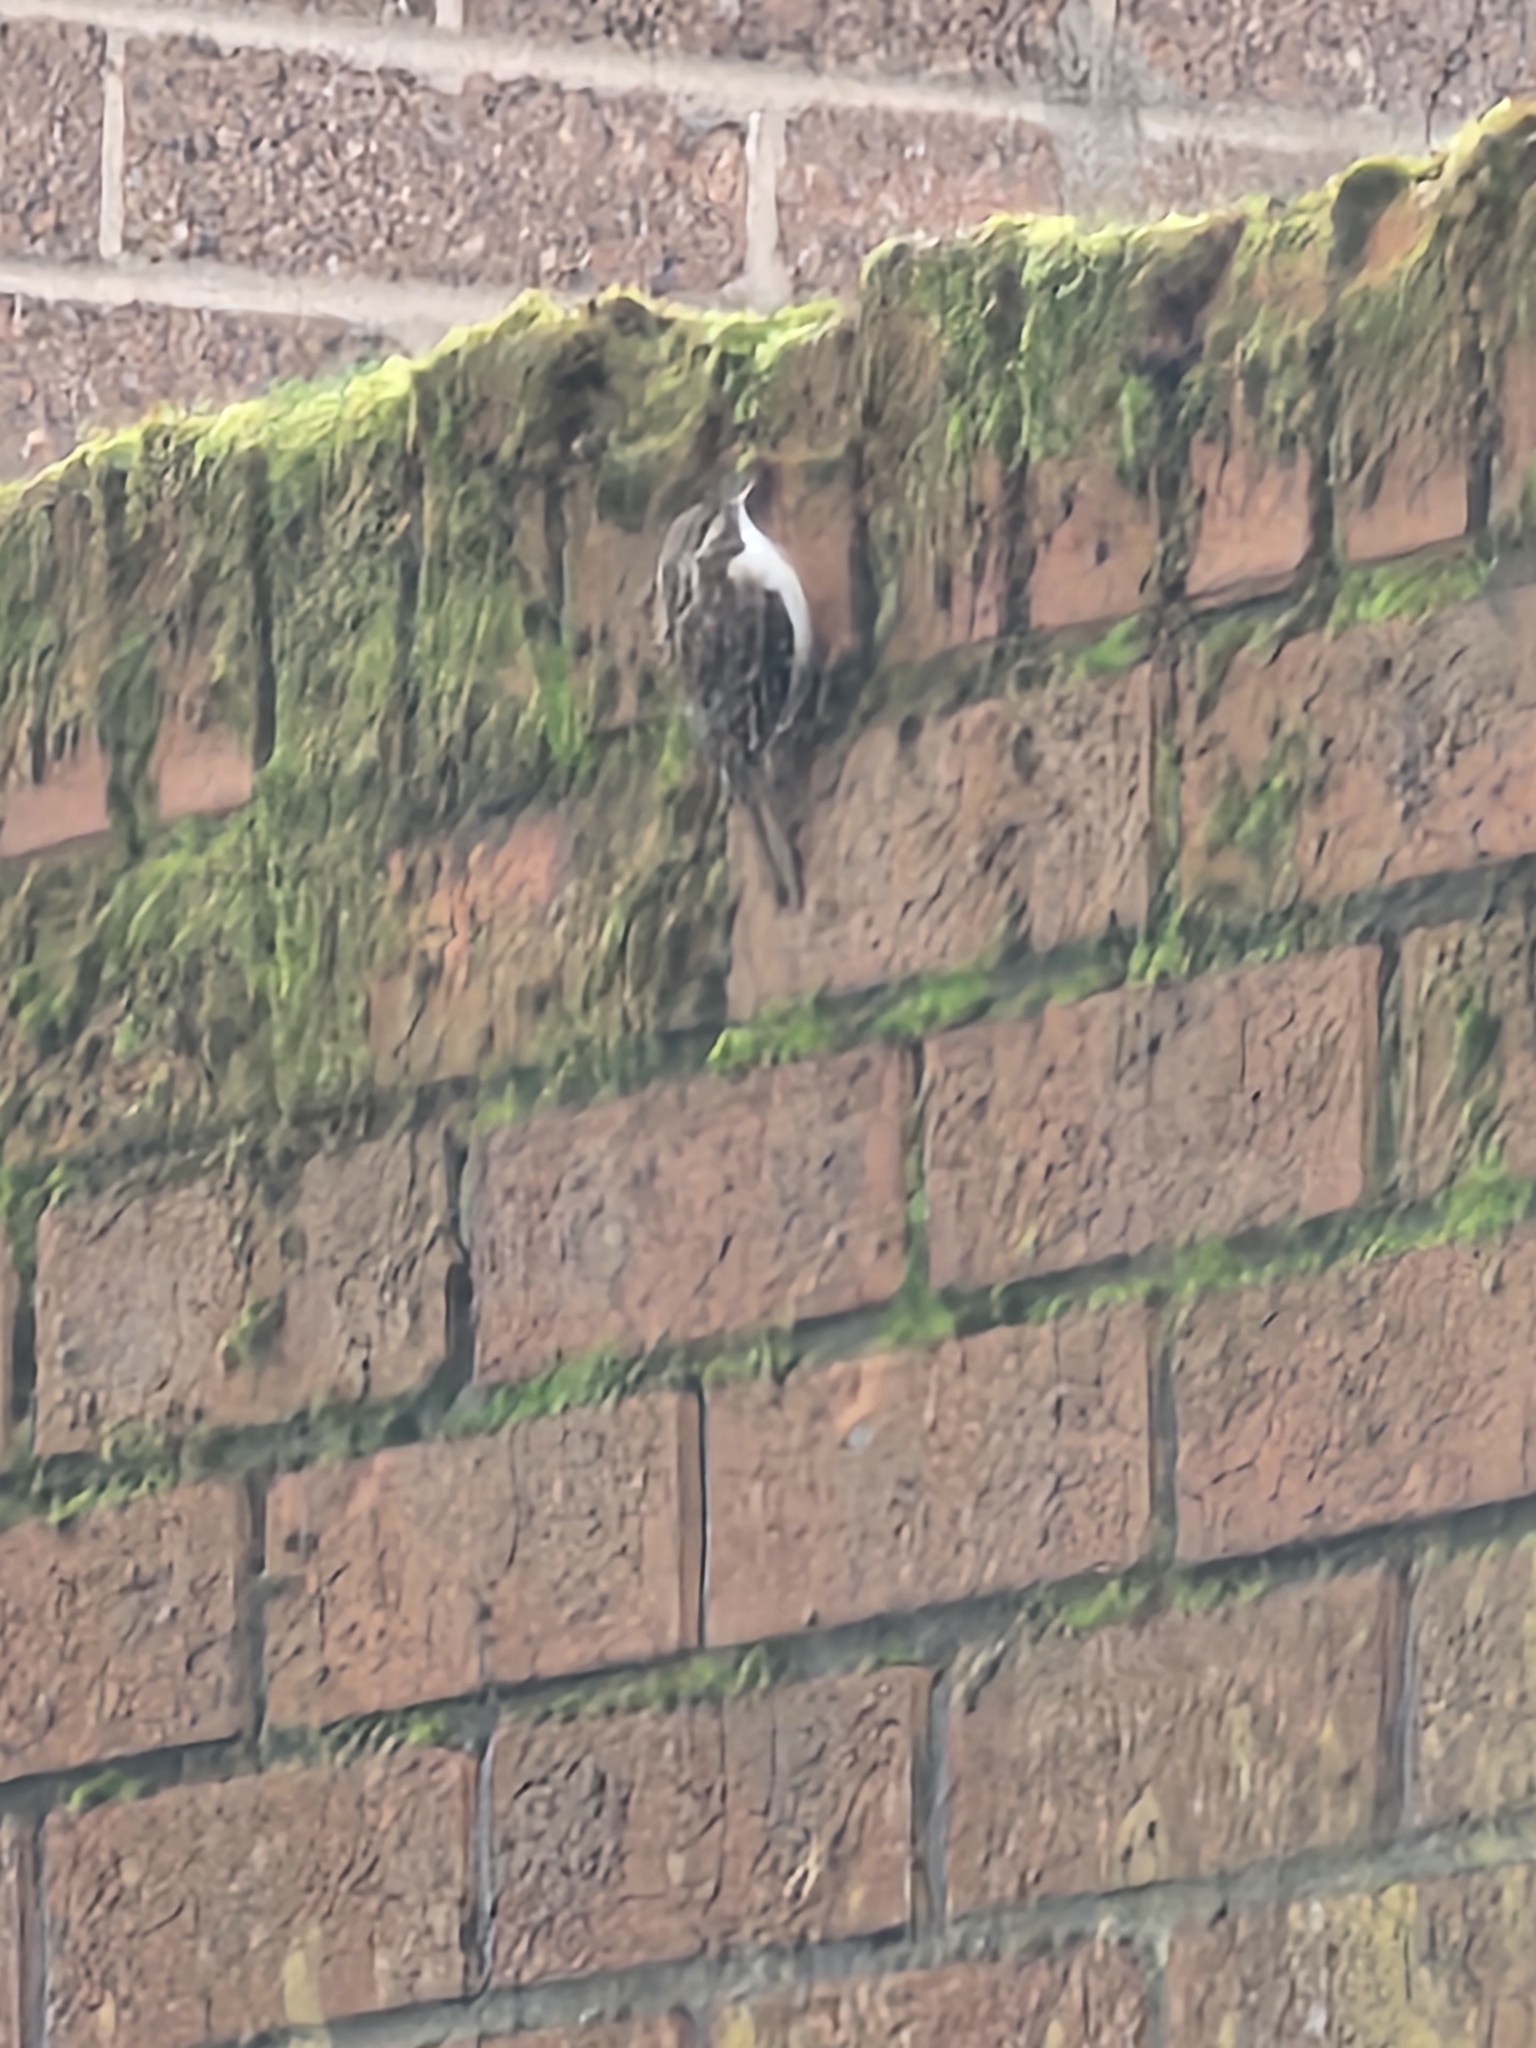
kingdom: Animalia
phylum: Chordata
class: Aves
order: Passeriformes
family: Certhiidae
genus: Certhia
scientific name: Certhia familiaris
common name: Eurasian treecreeper
